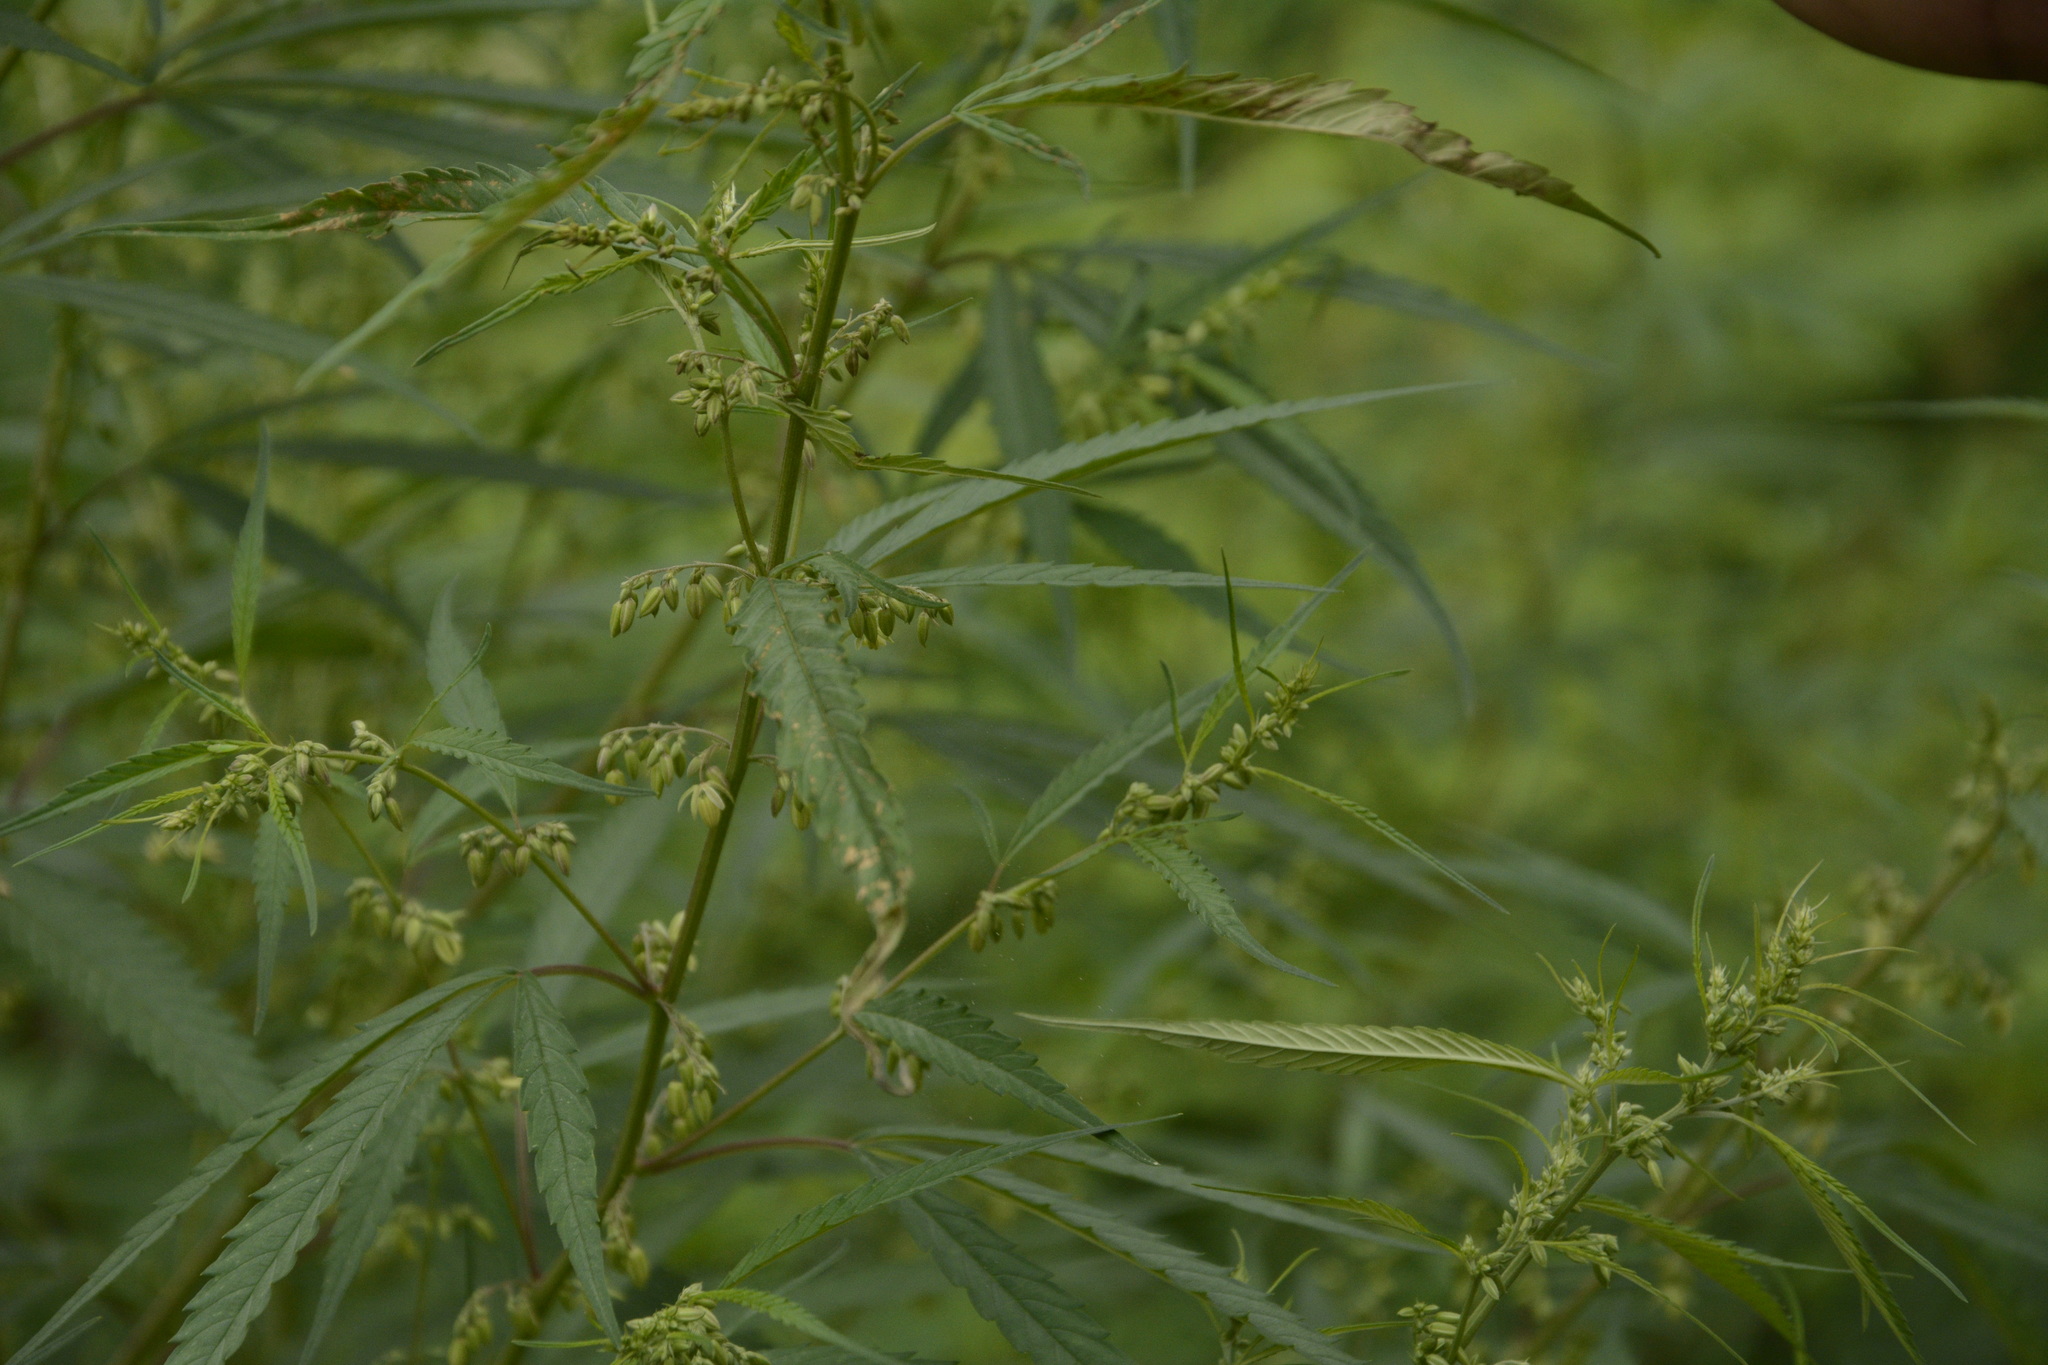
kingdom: Plantae
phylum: Tracheophyta
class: Magnoliopsida
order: Rosales
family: Cannabaceae
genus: Cannabis
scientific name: Cannabis sativa
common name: Hemp
